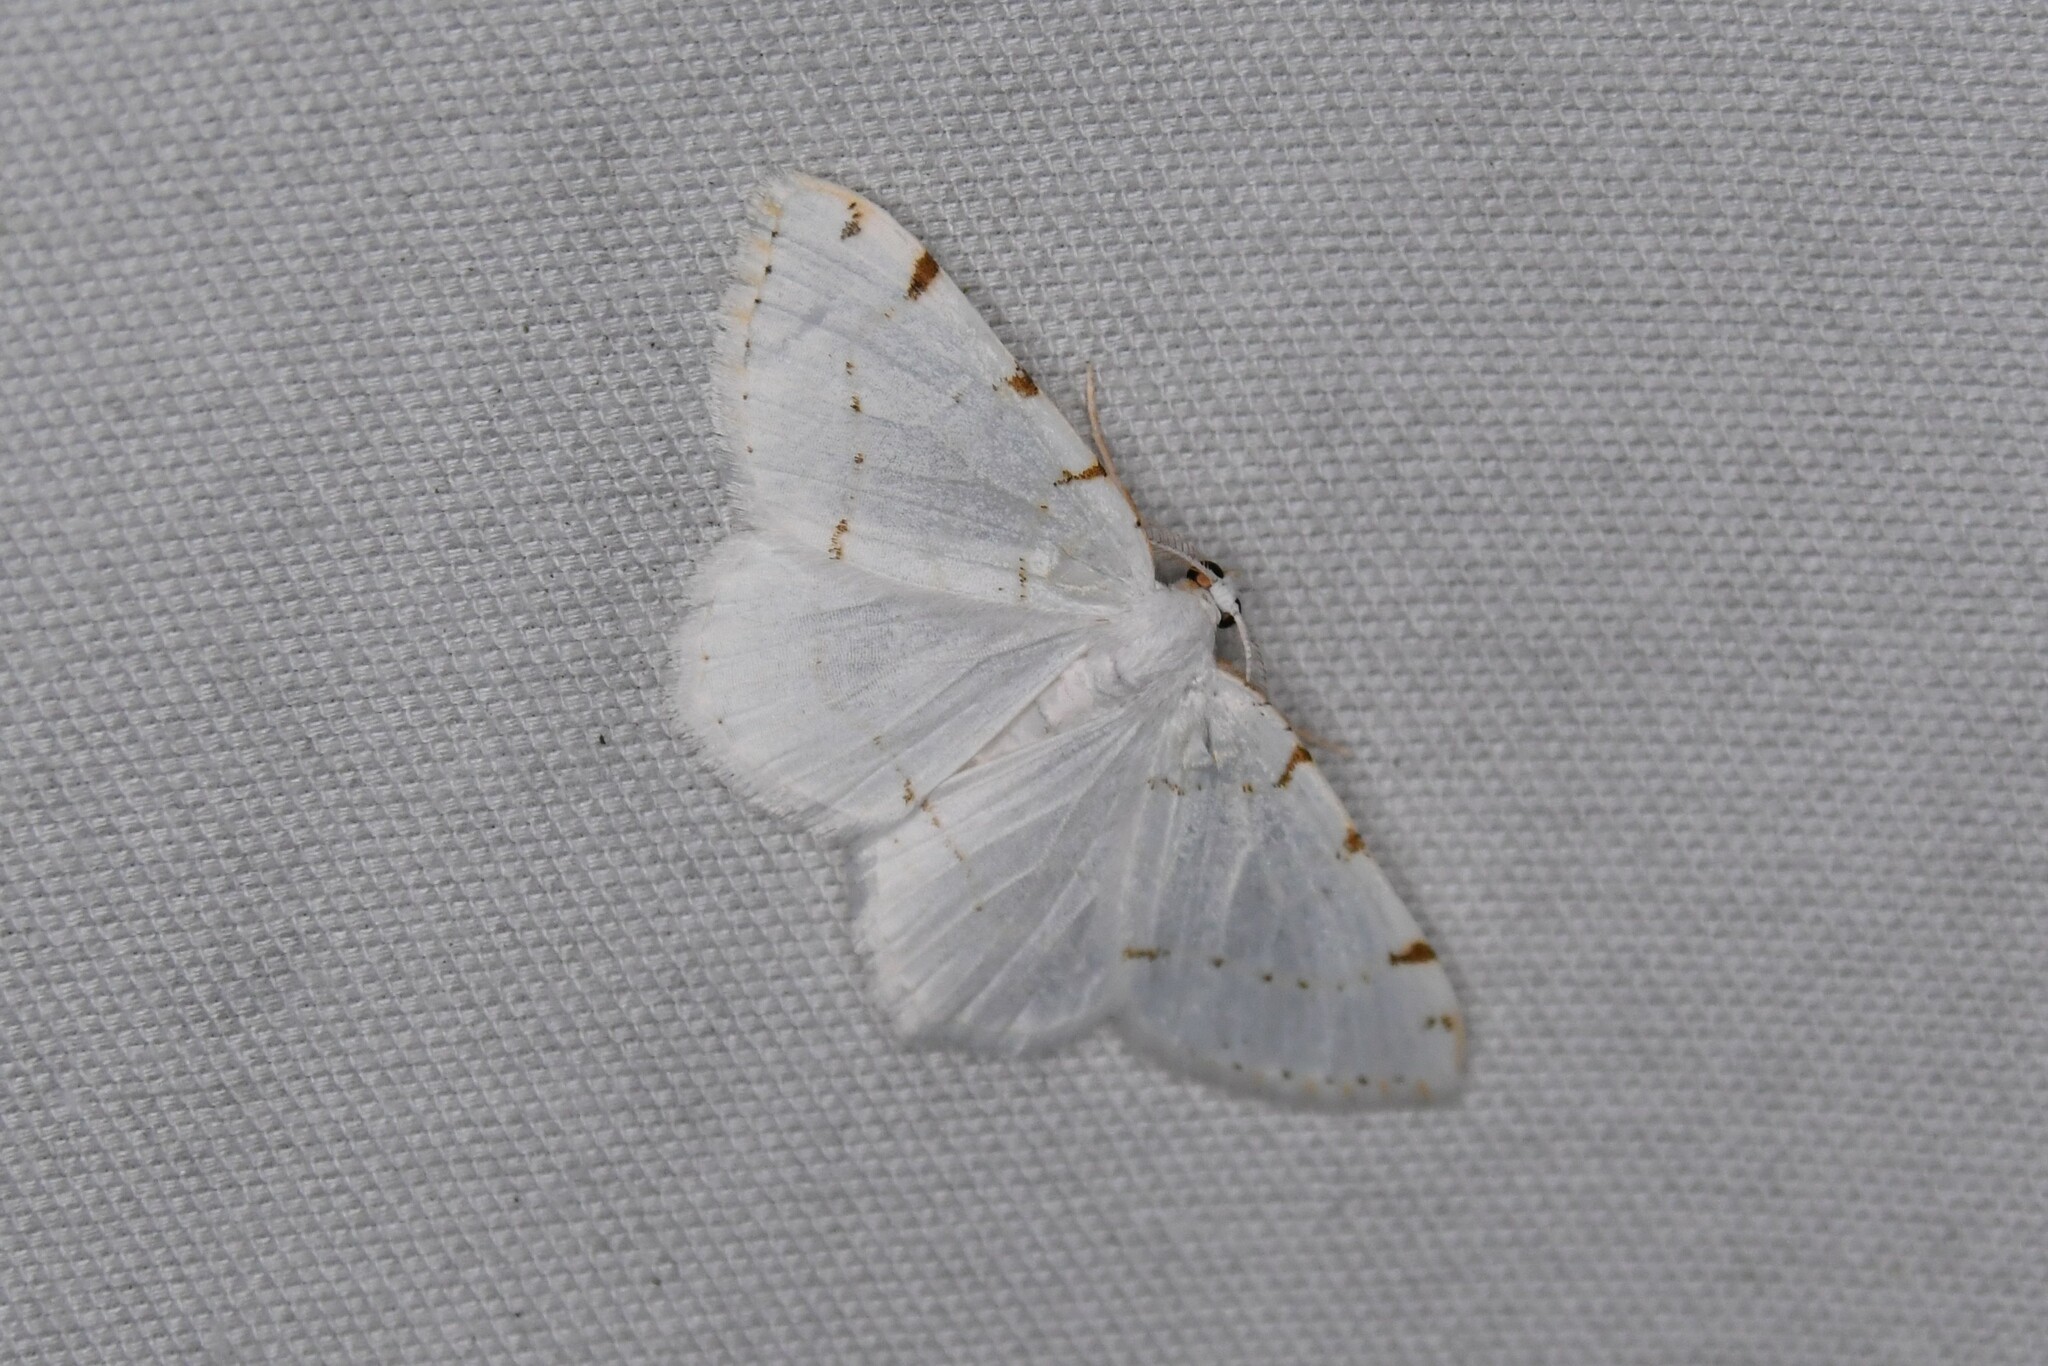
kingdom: Animalia
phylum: Arthropoda
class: Insecta
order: Lepidoptera
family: Geometridae
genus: Macaria
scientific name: Macaria pustularia
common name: Lesser maple spanworm moth
